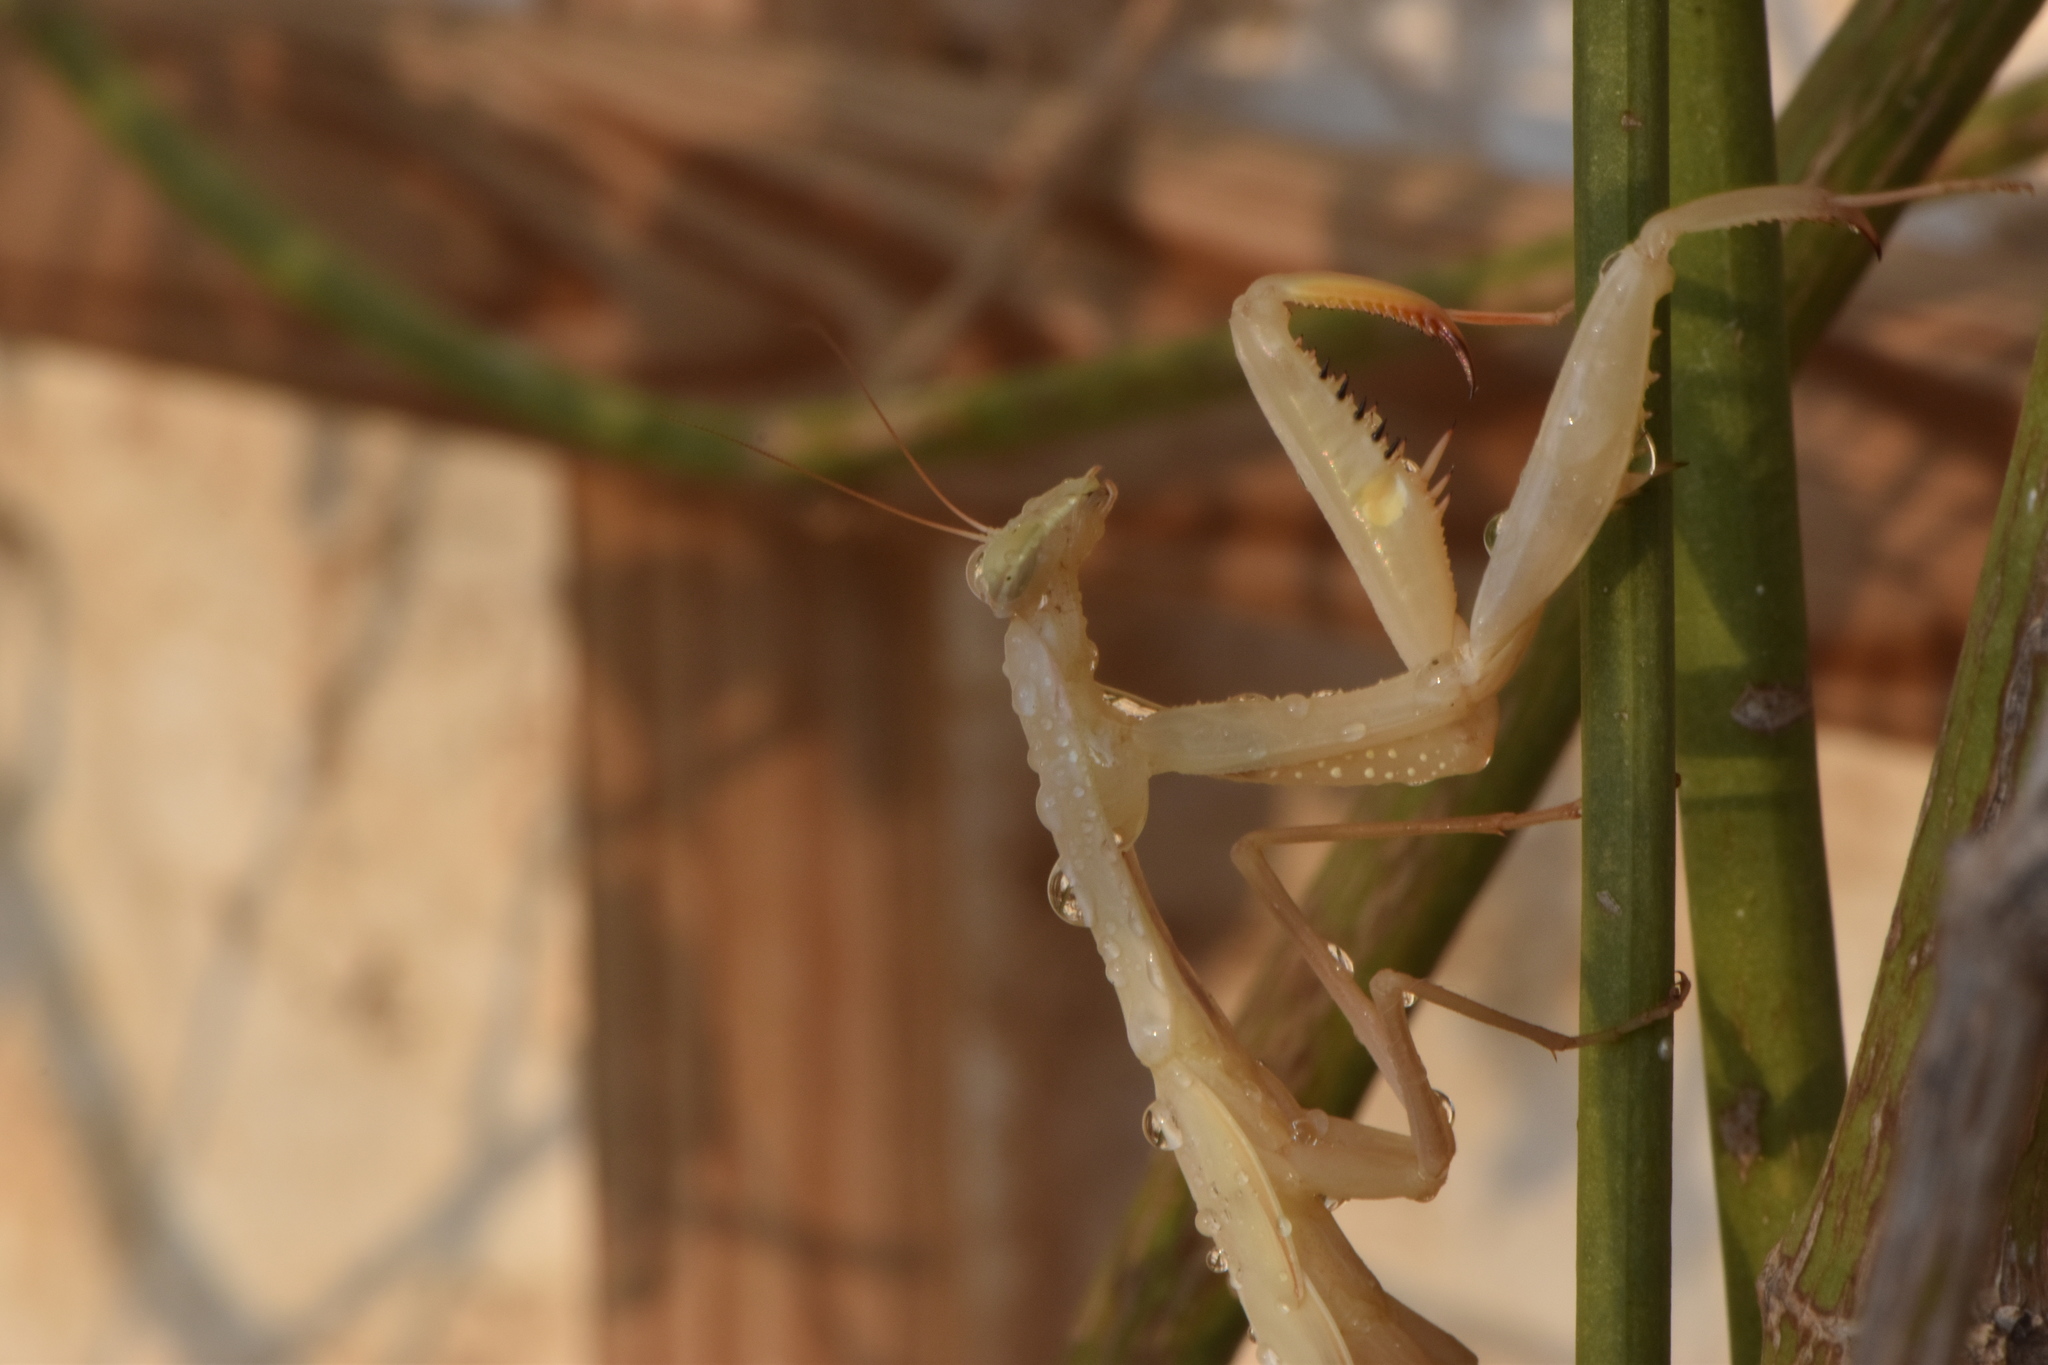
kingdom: Animalia
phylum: Arthropoda
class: Insecta
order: Mantodea
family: Mantidae
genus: Mantis
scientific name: Mantis religiosa
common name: Praying mantis
